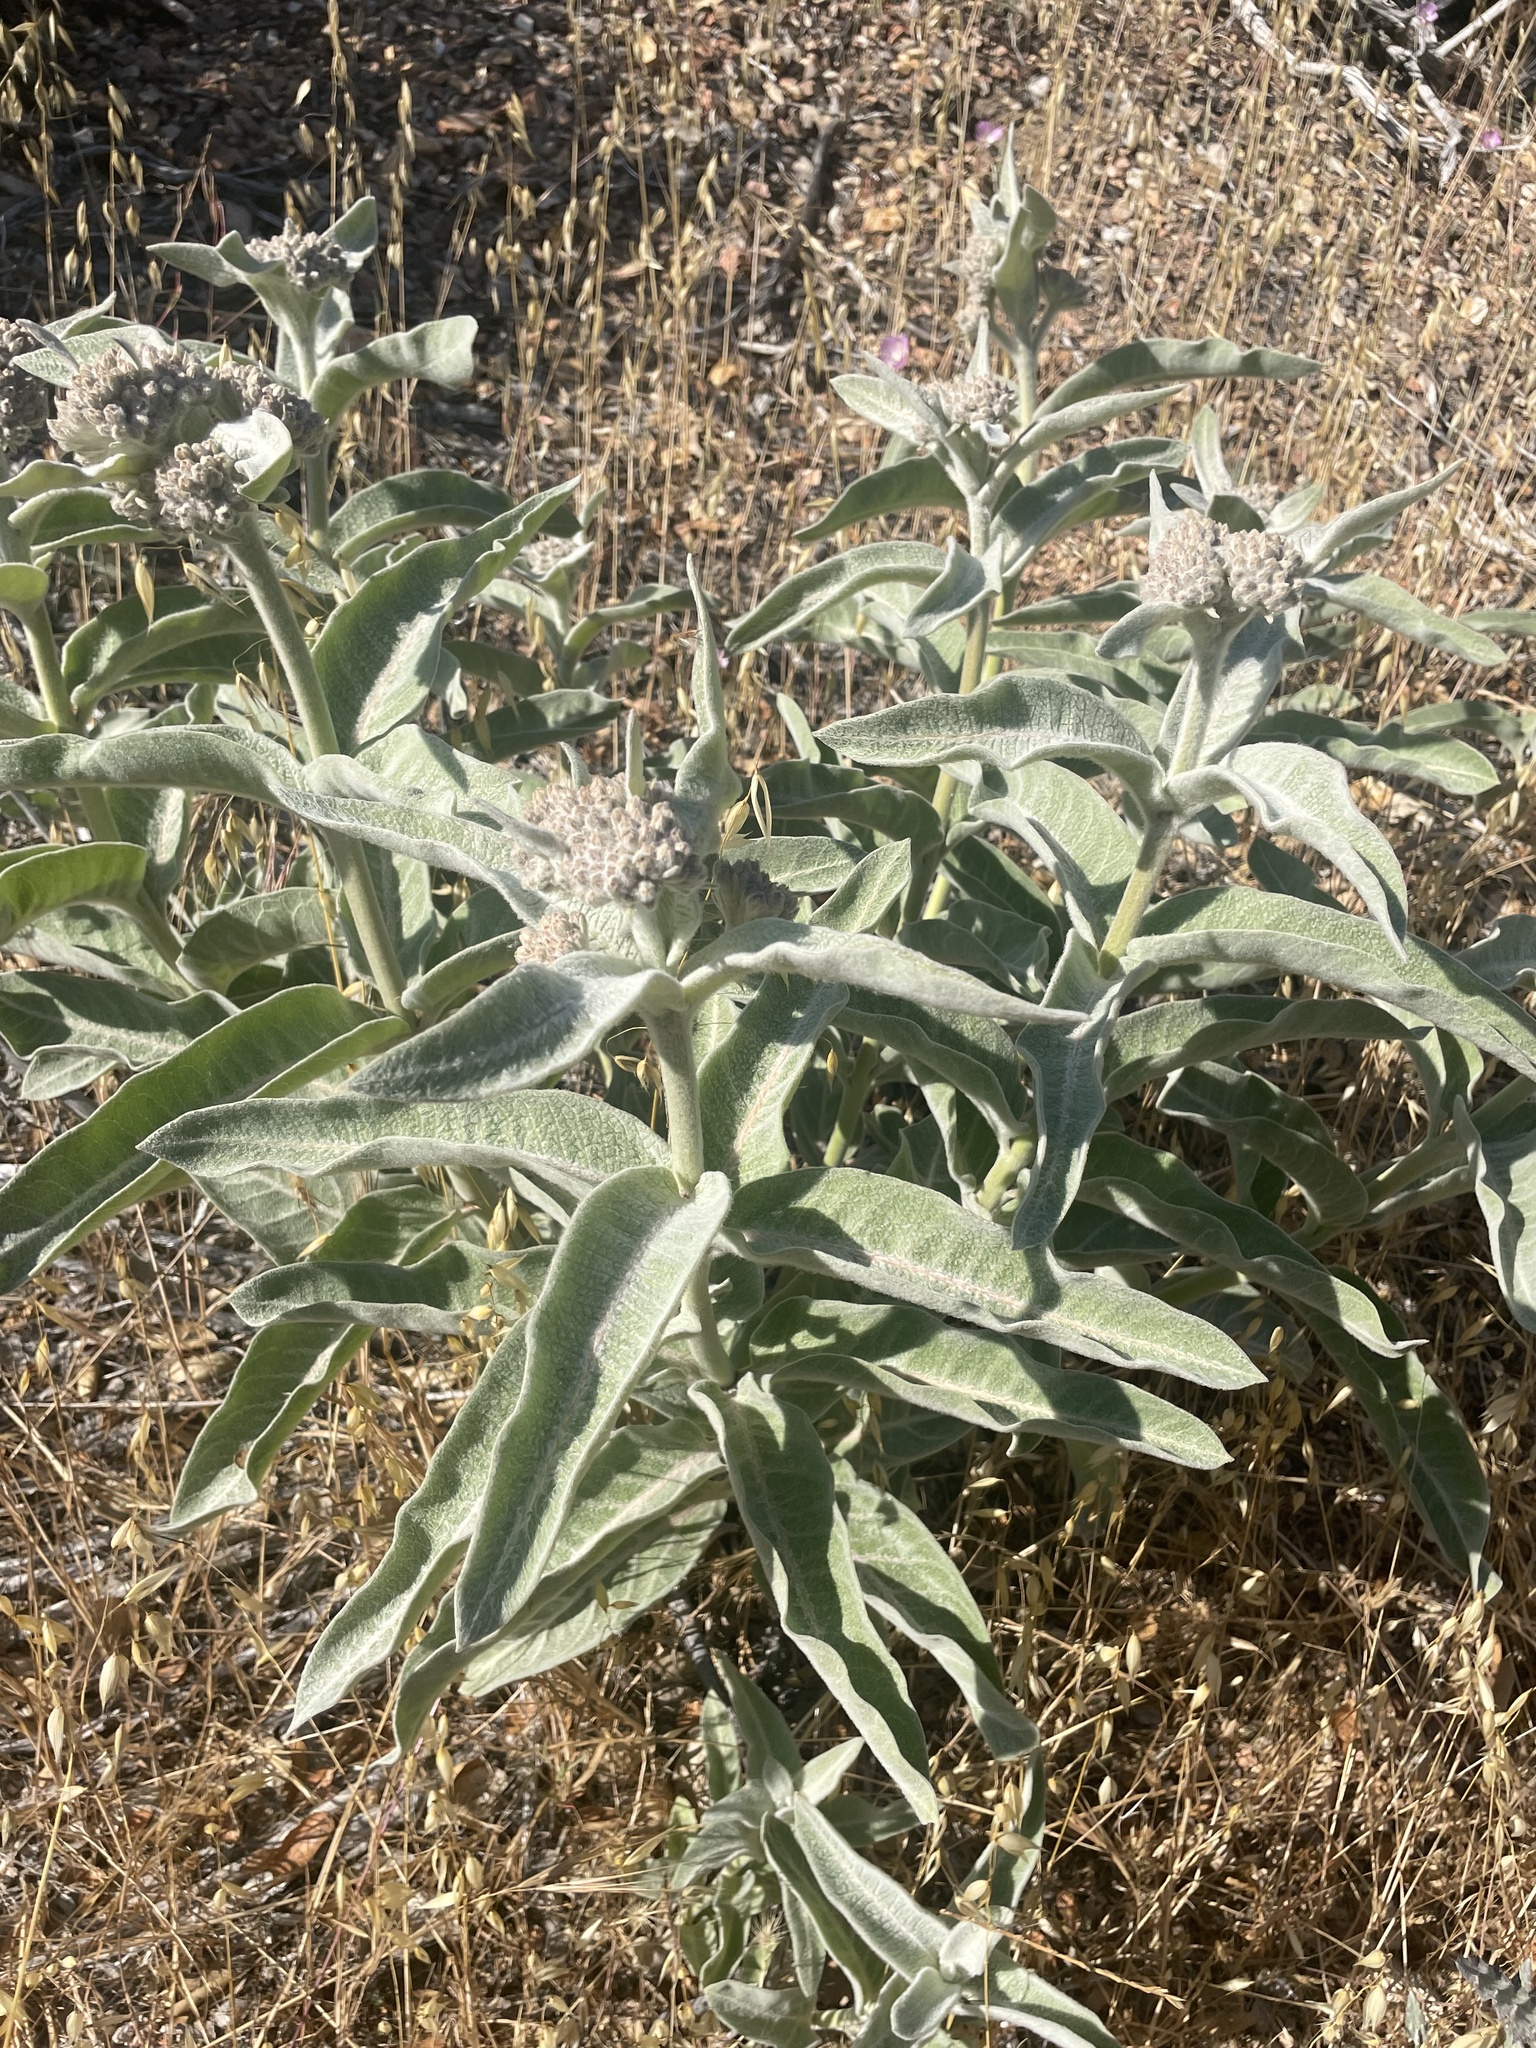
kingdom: Plantae
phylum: Tracheophyta
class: Magnoliopsida
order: Gentianales
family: Apocynaceae
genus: Asclepias
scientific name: Asclepias eriocarpa
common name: Indian milkweed
